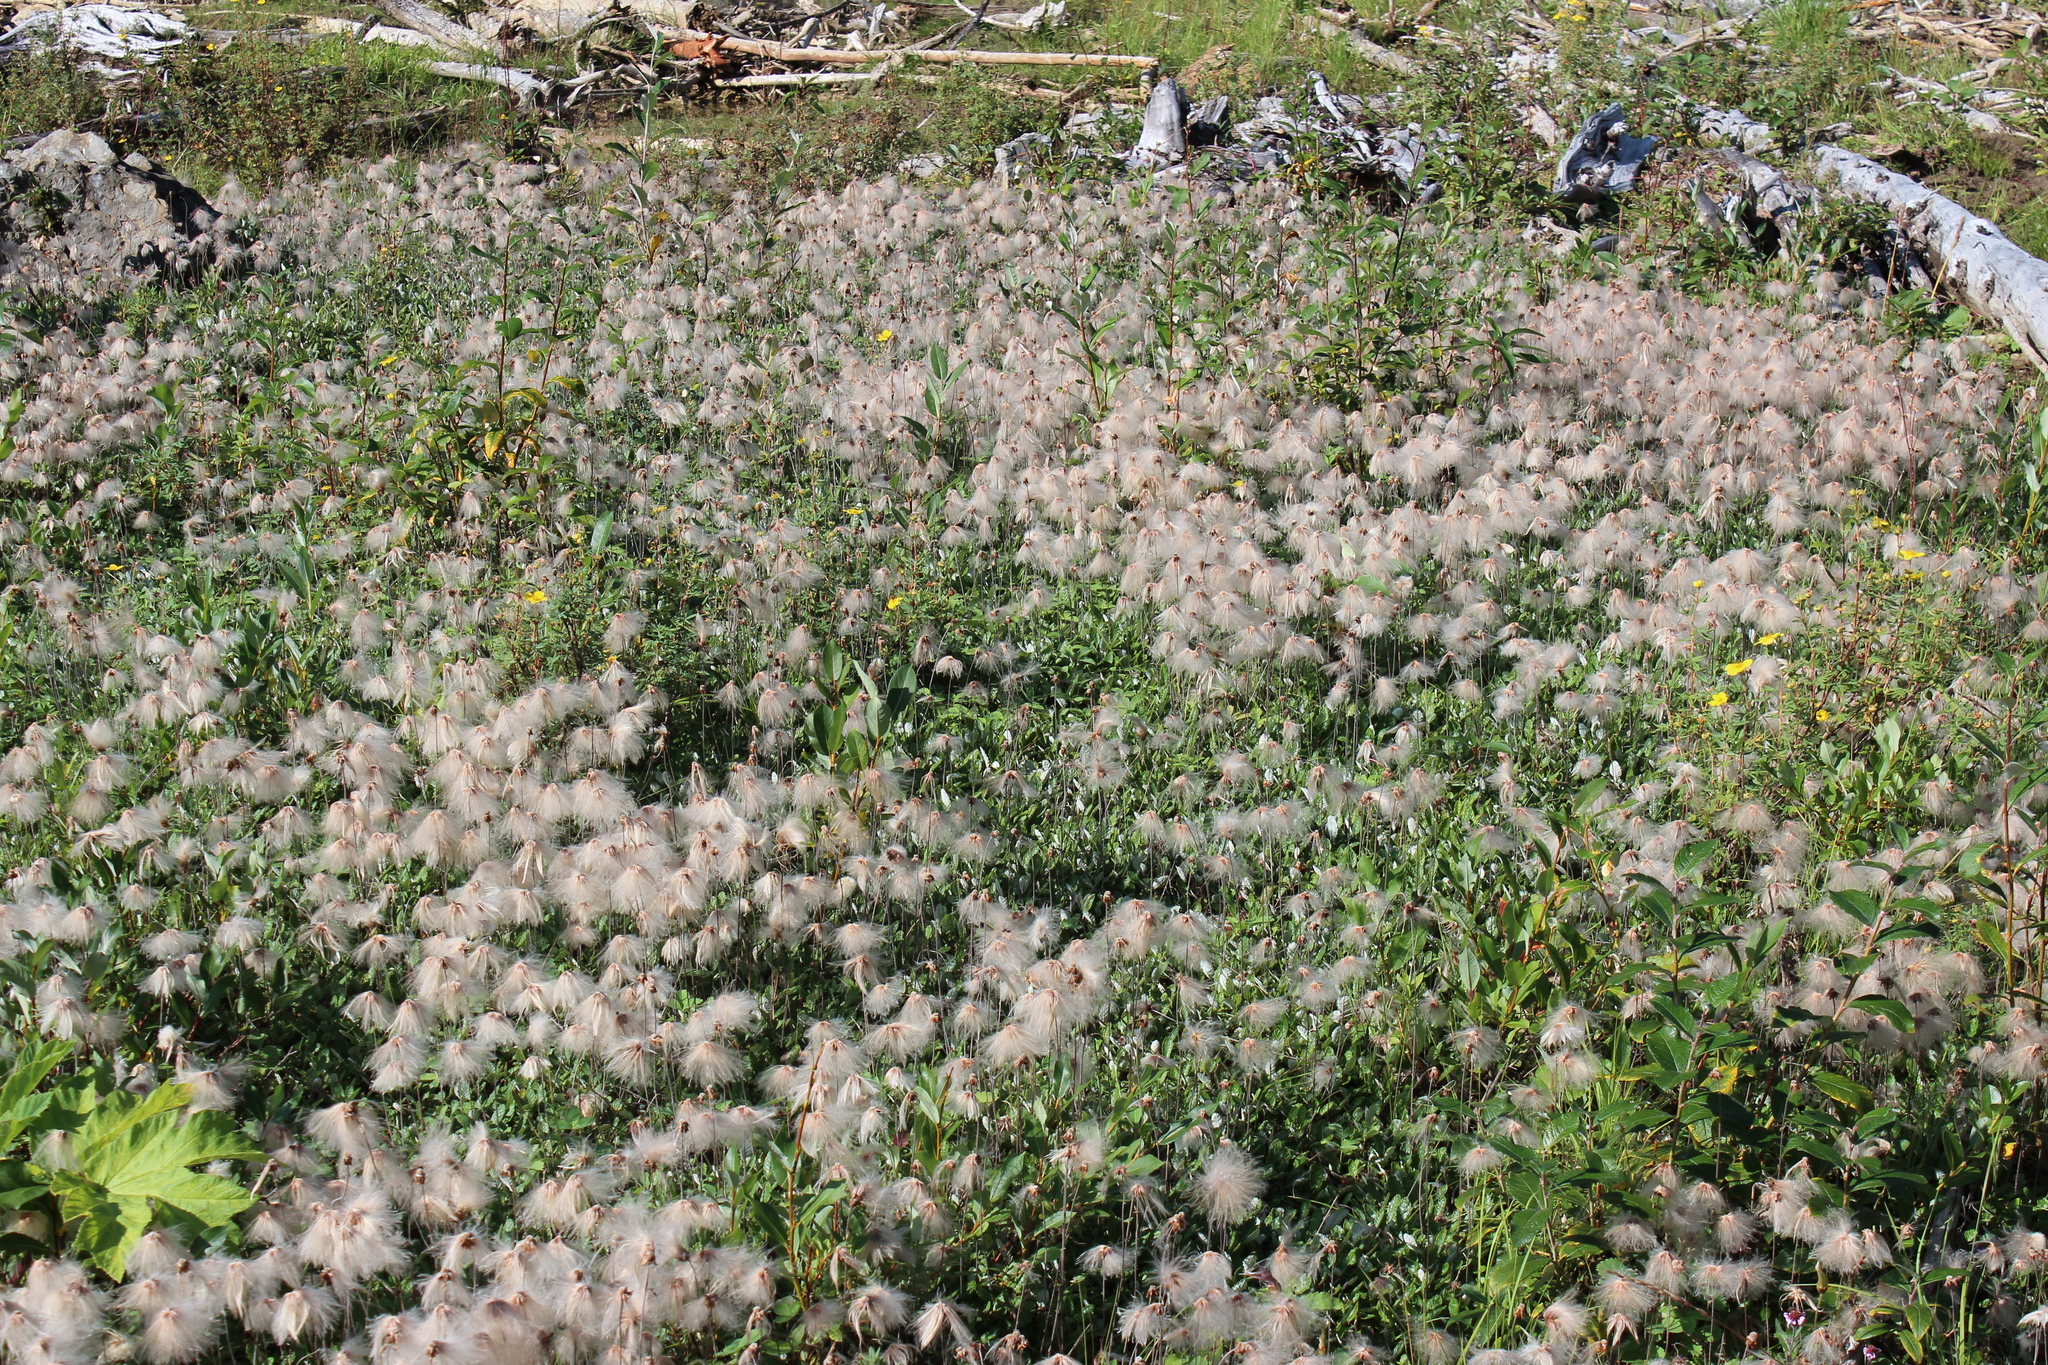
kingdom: Plantae
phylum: Tracheophyta
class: Magnoliopsida
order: Rosales
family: Rosaceae
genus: Dryas
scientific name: Dryas drummondii
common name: Drummond's dryad
